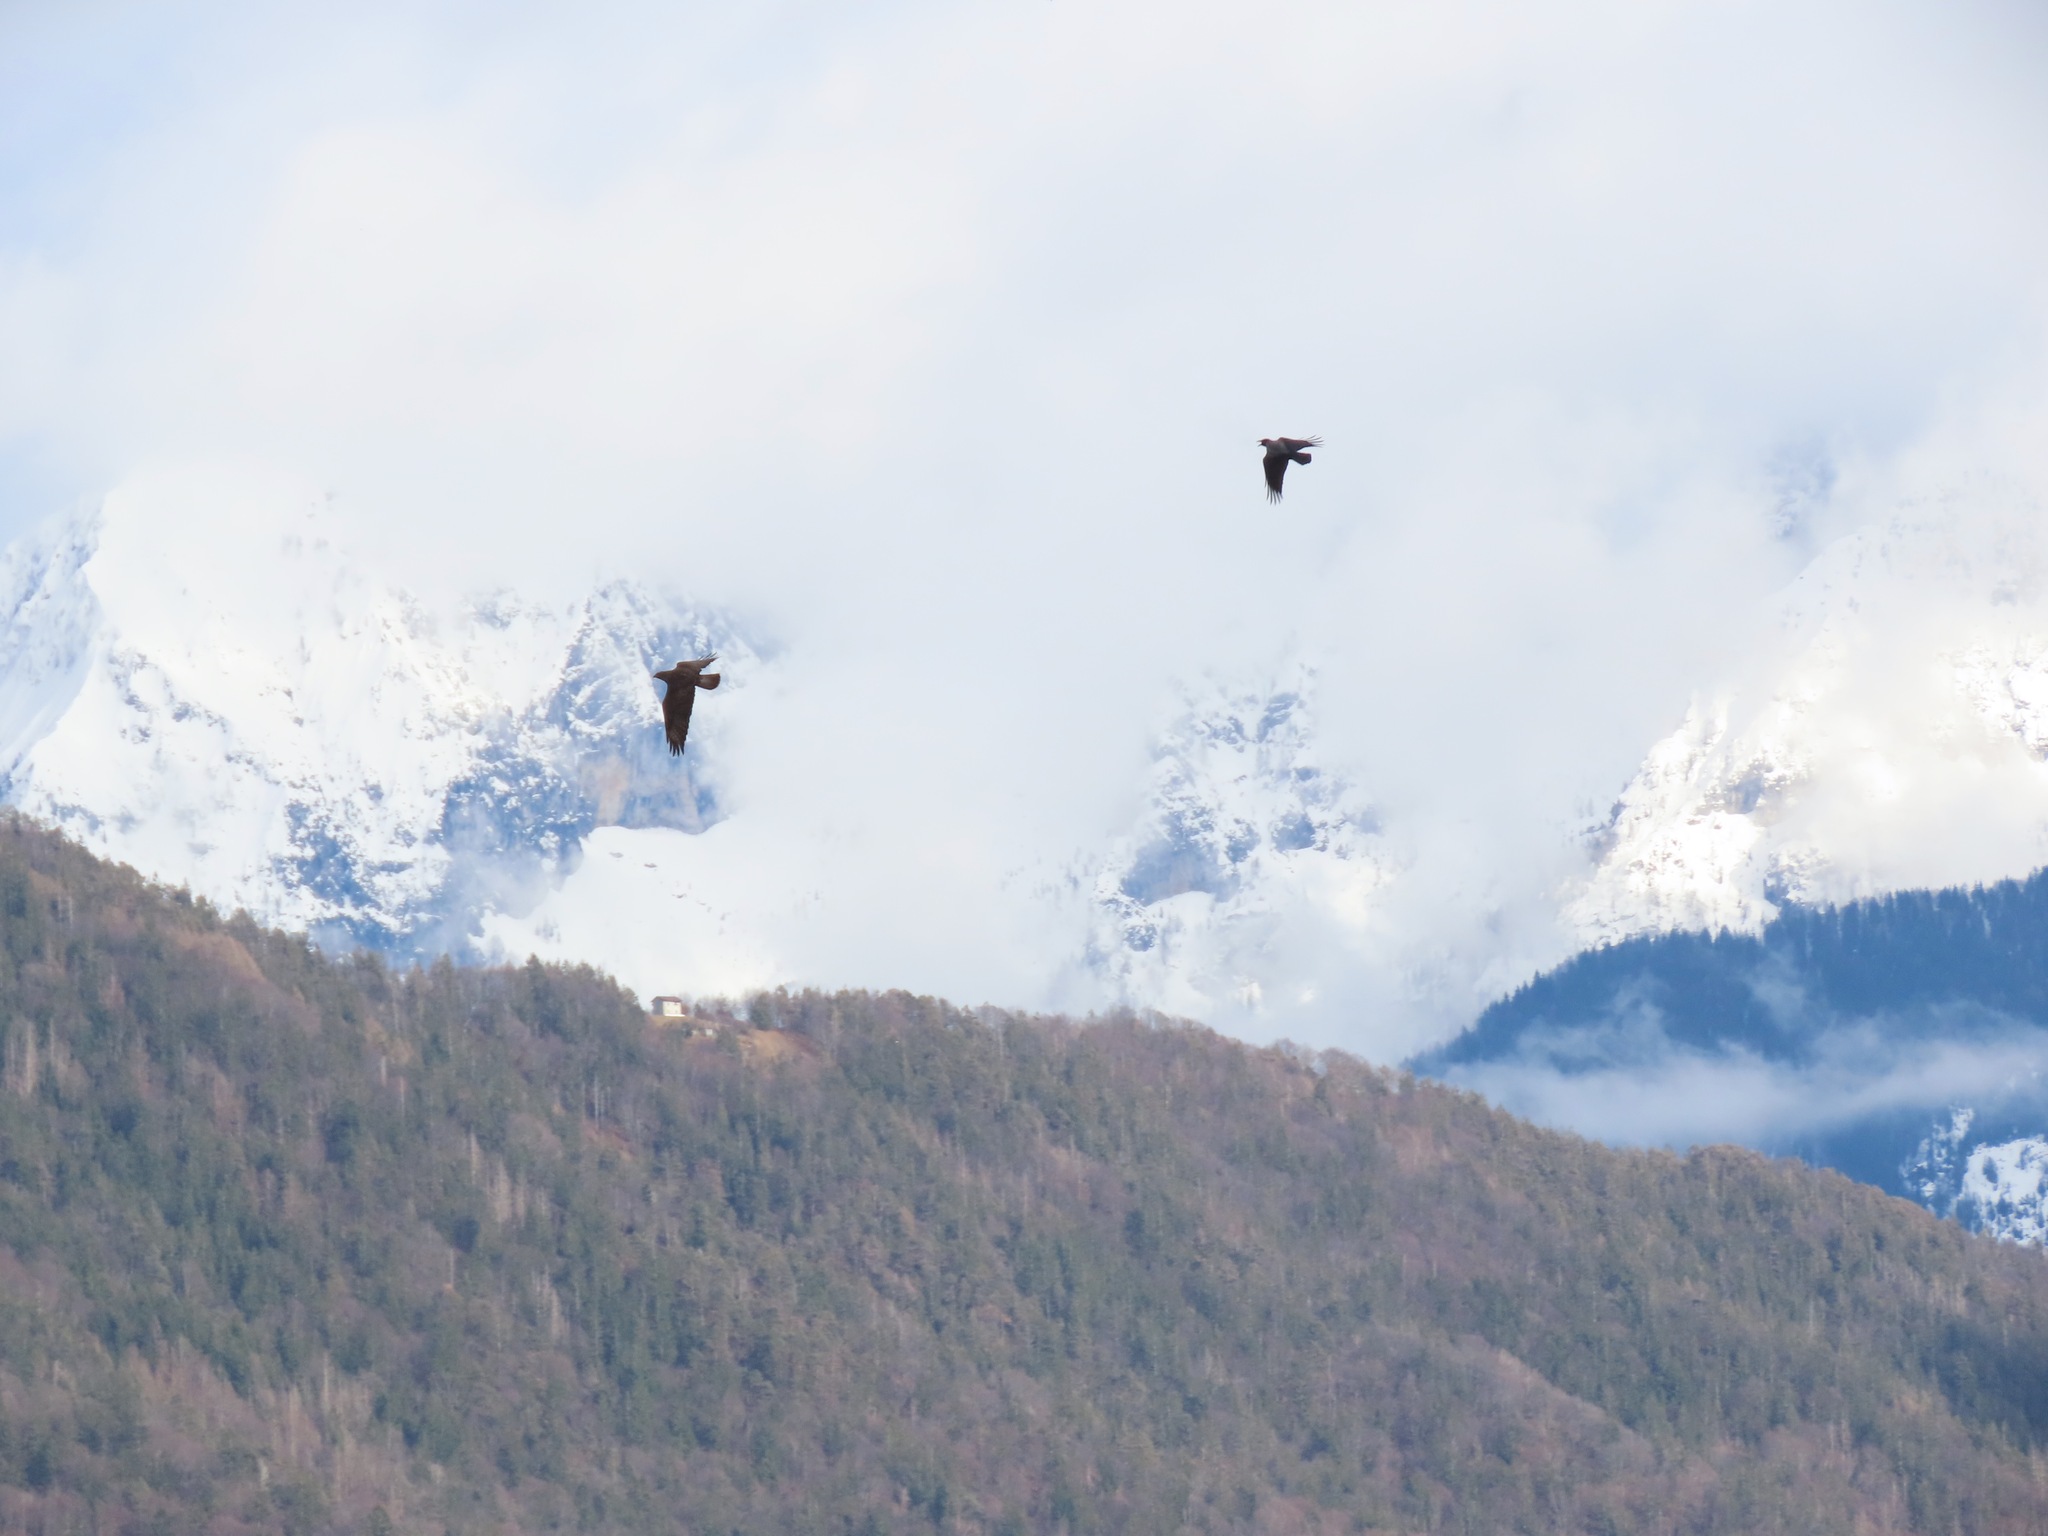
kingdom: Animalia
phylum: Chordata
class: Aves
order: Accipitriformes
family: Accipitridae
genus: Buteo
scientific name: Buteo buteo
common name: Common buzzard
